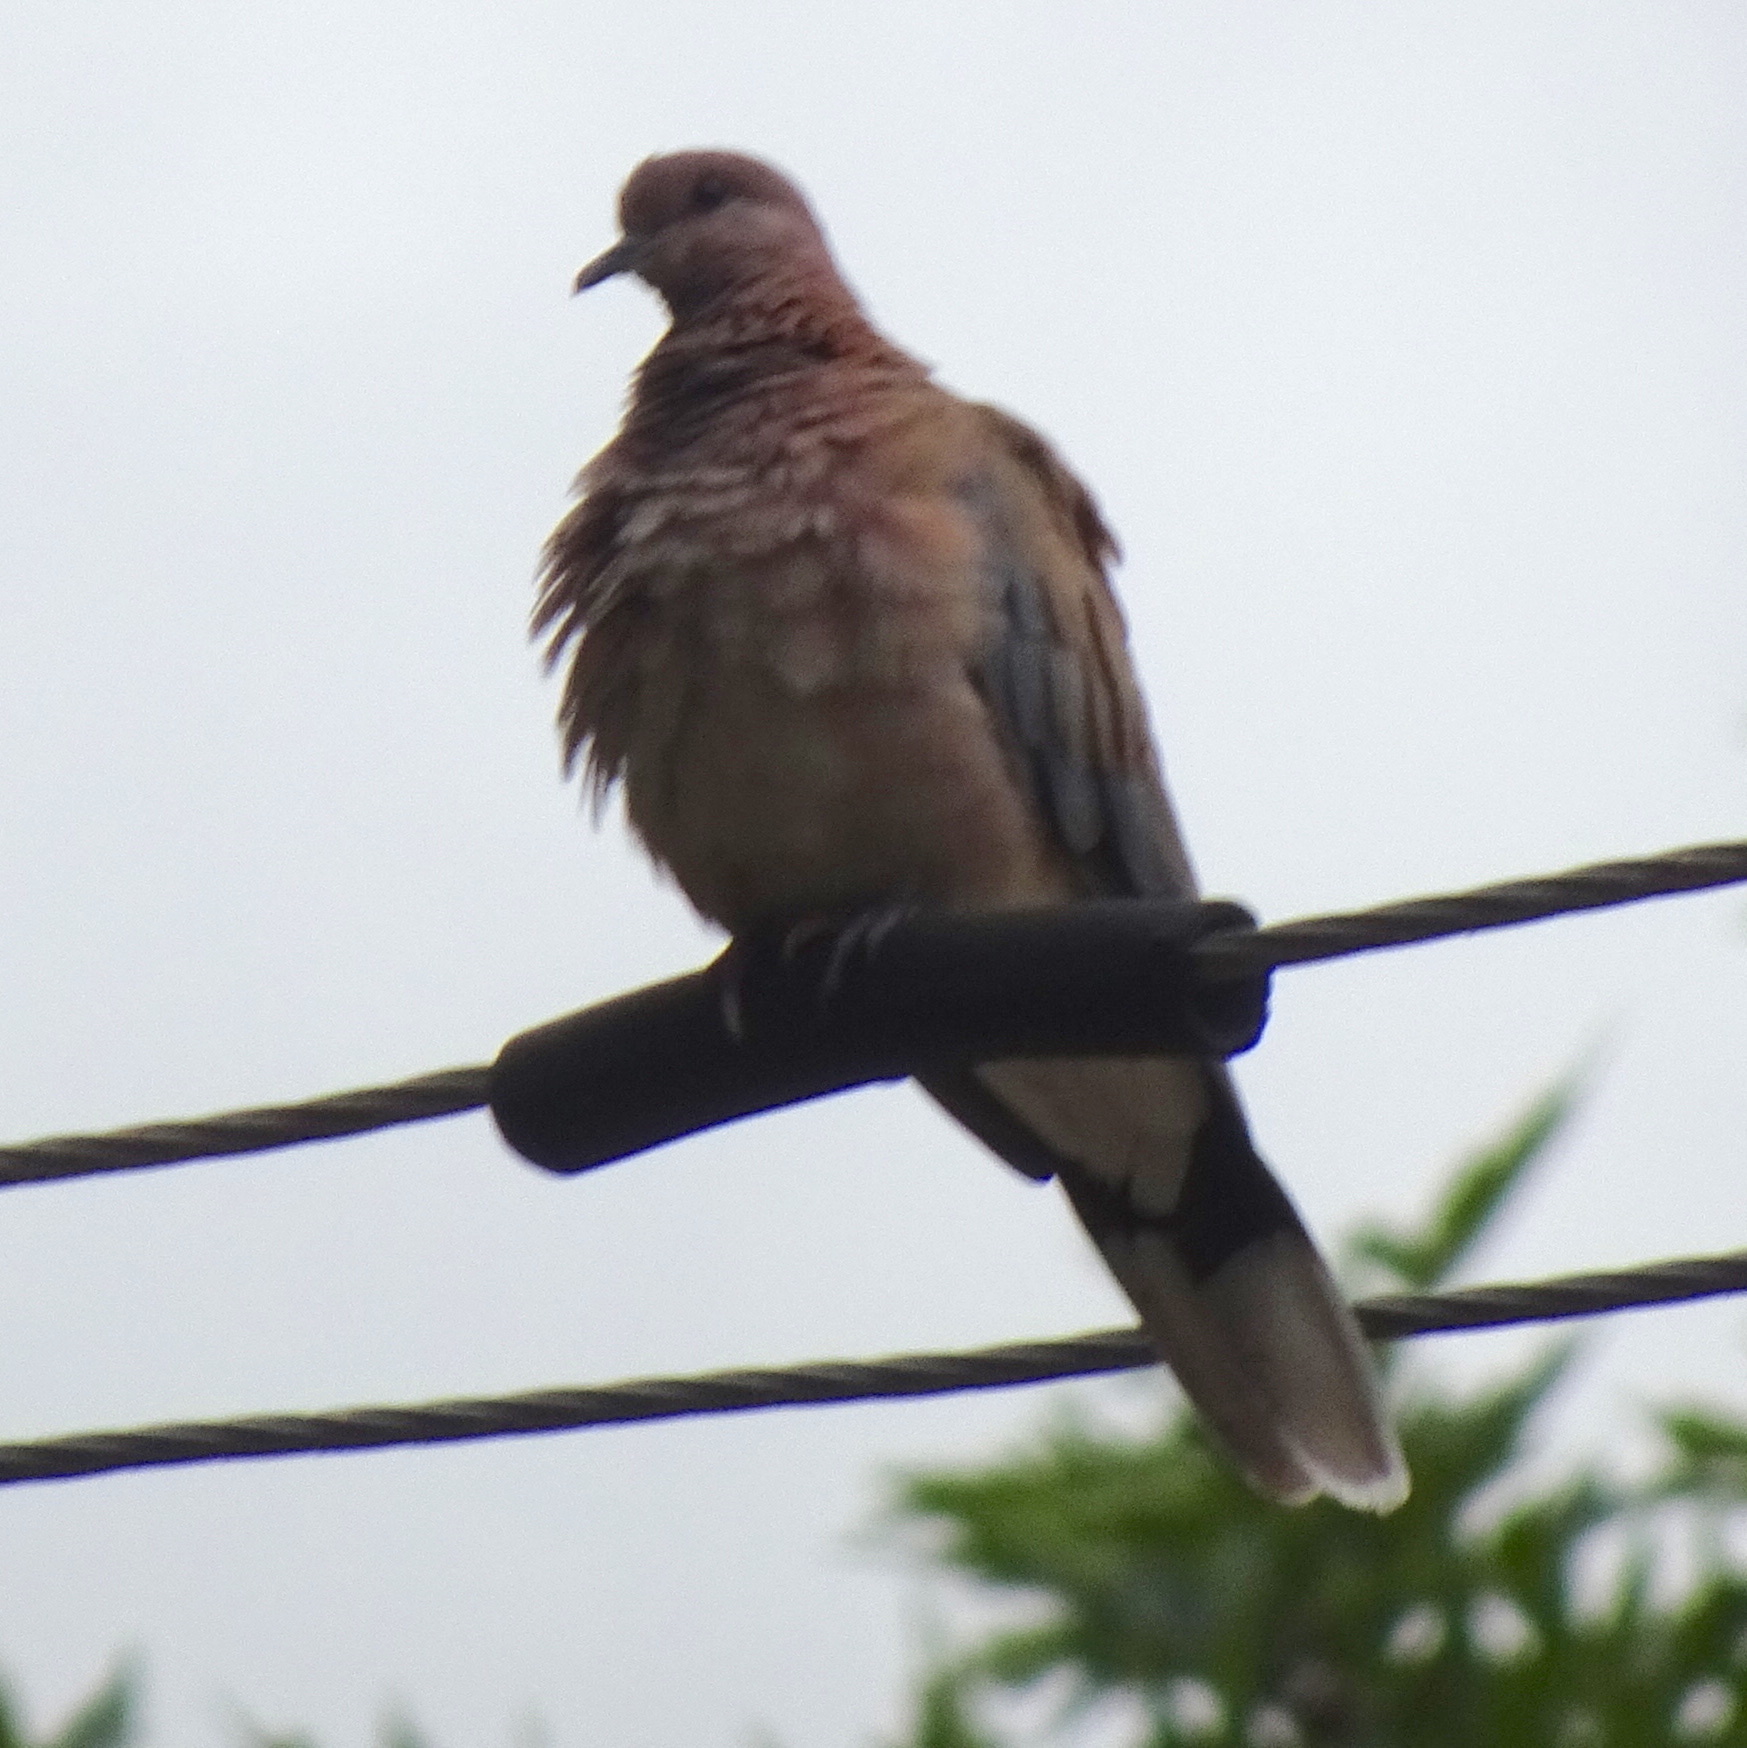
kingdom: Animalia
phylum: Chordata
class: Aves
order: Columbiformes
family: Columbidae
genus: Spilopelia
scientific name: Spilopelia senegalensis
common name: Laughing dove
